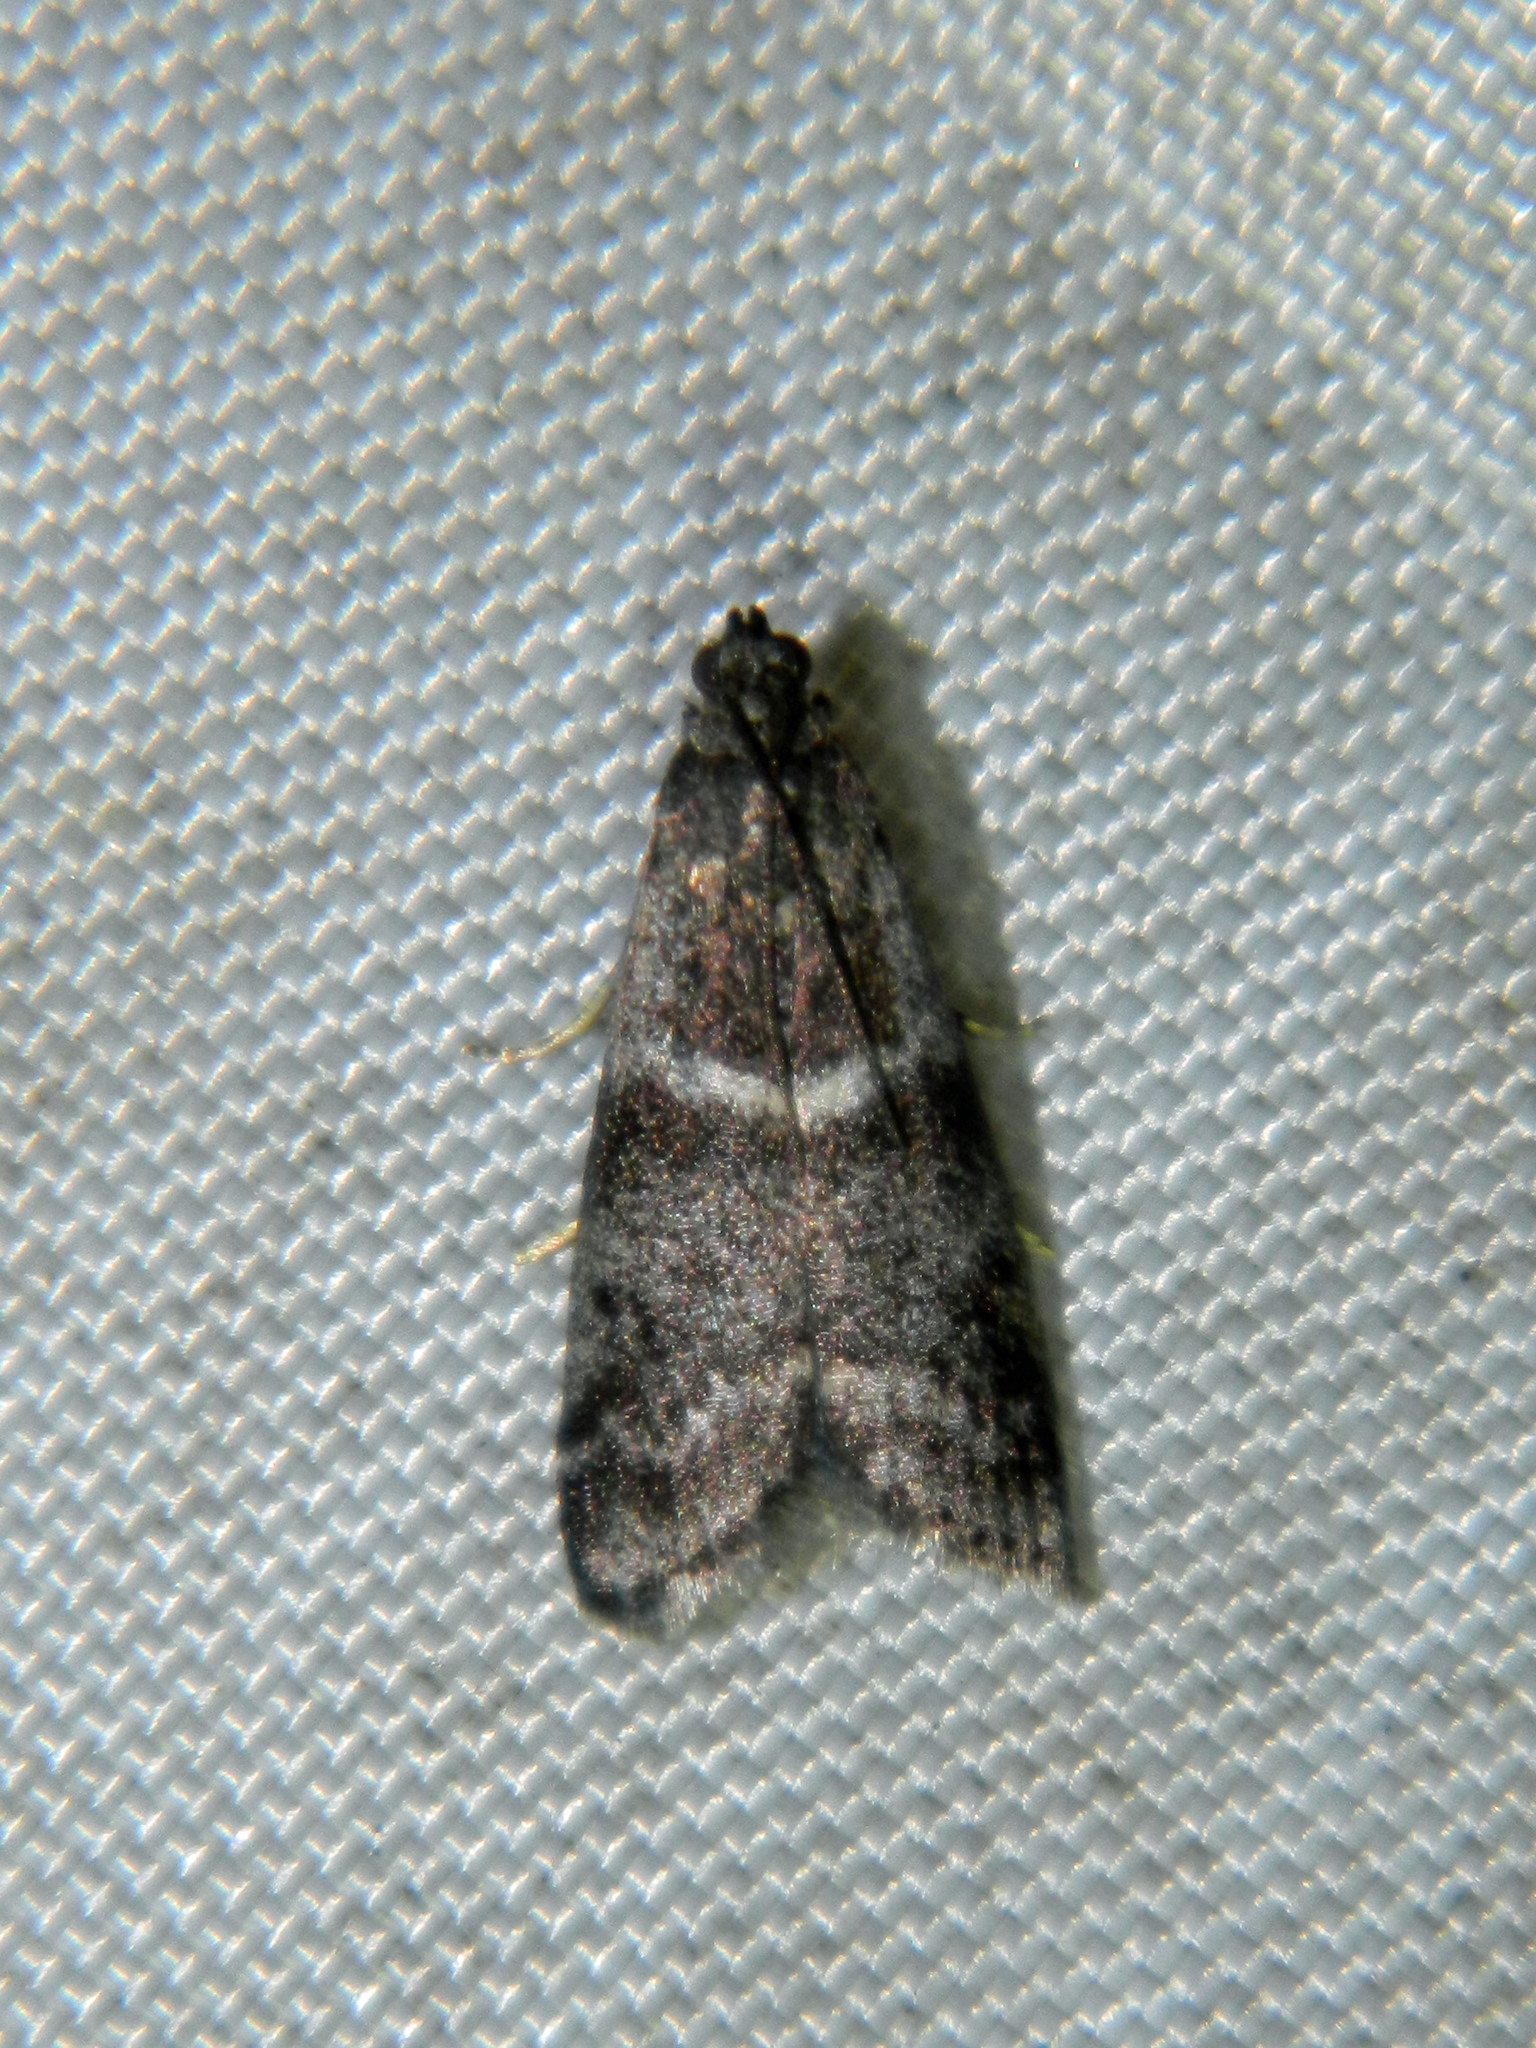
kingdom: Animalia
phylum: Arthropoda
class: Insecta
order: Lepidoptera
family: Pyralidae
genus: Apomyelois
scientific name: Apomyelois bistriatella
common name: Heath knot-horn
